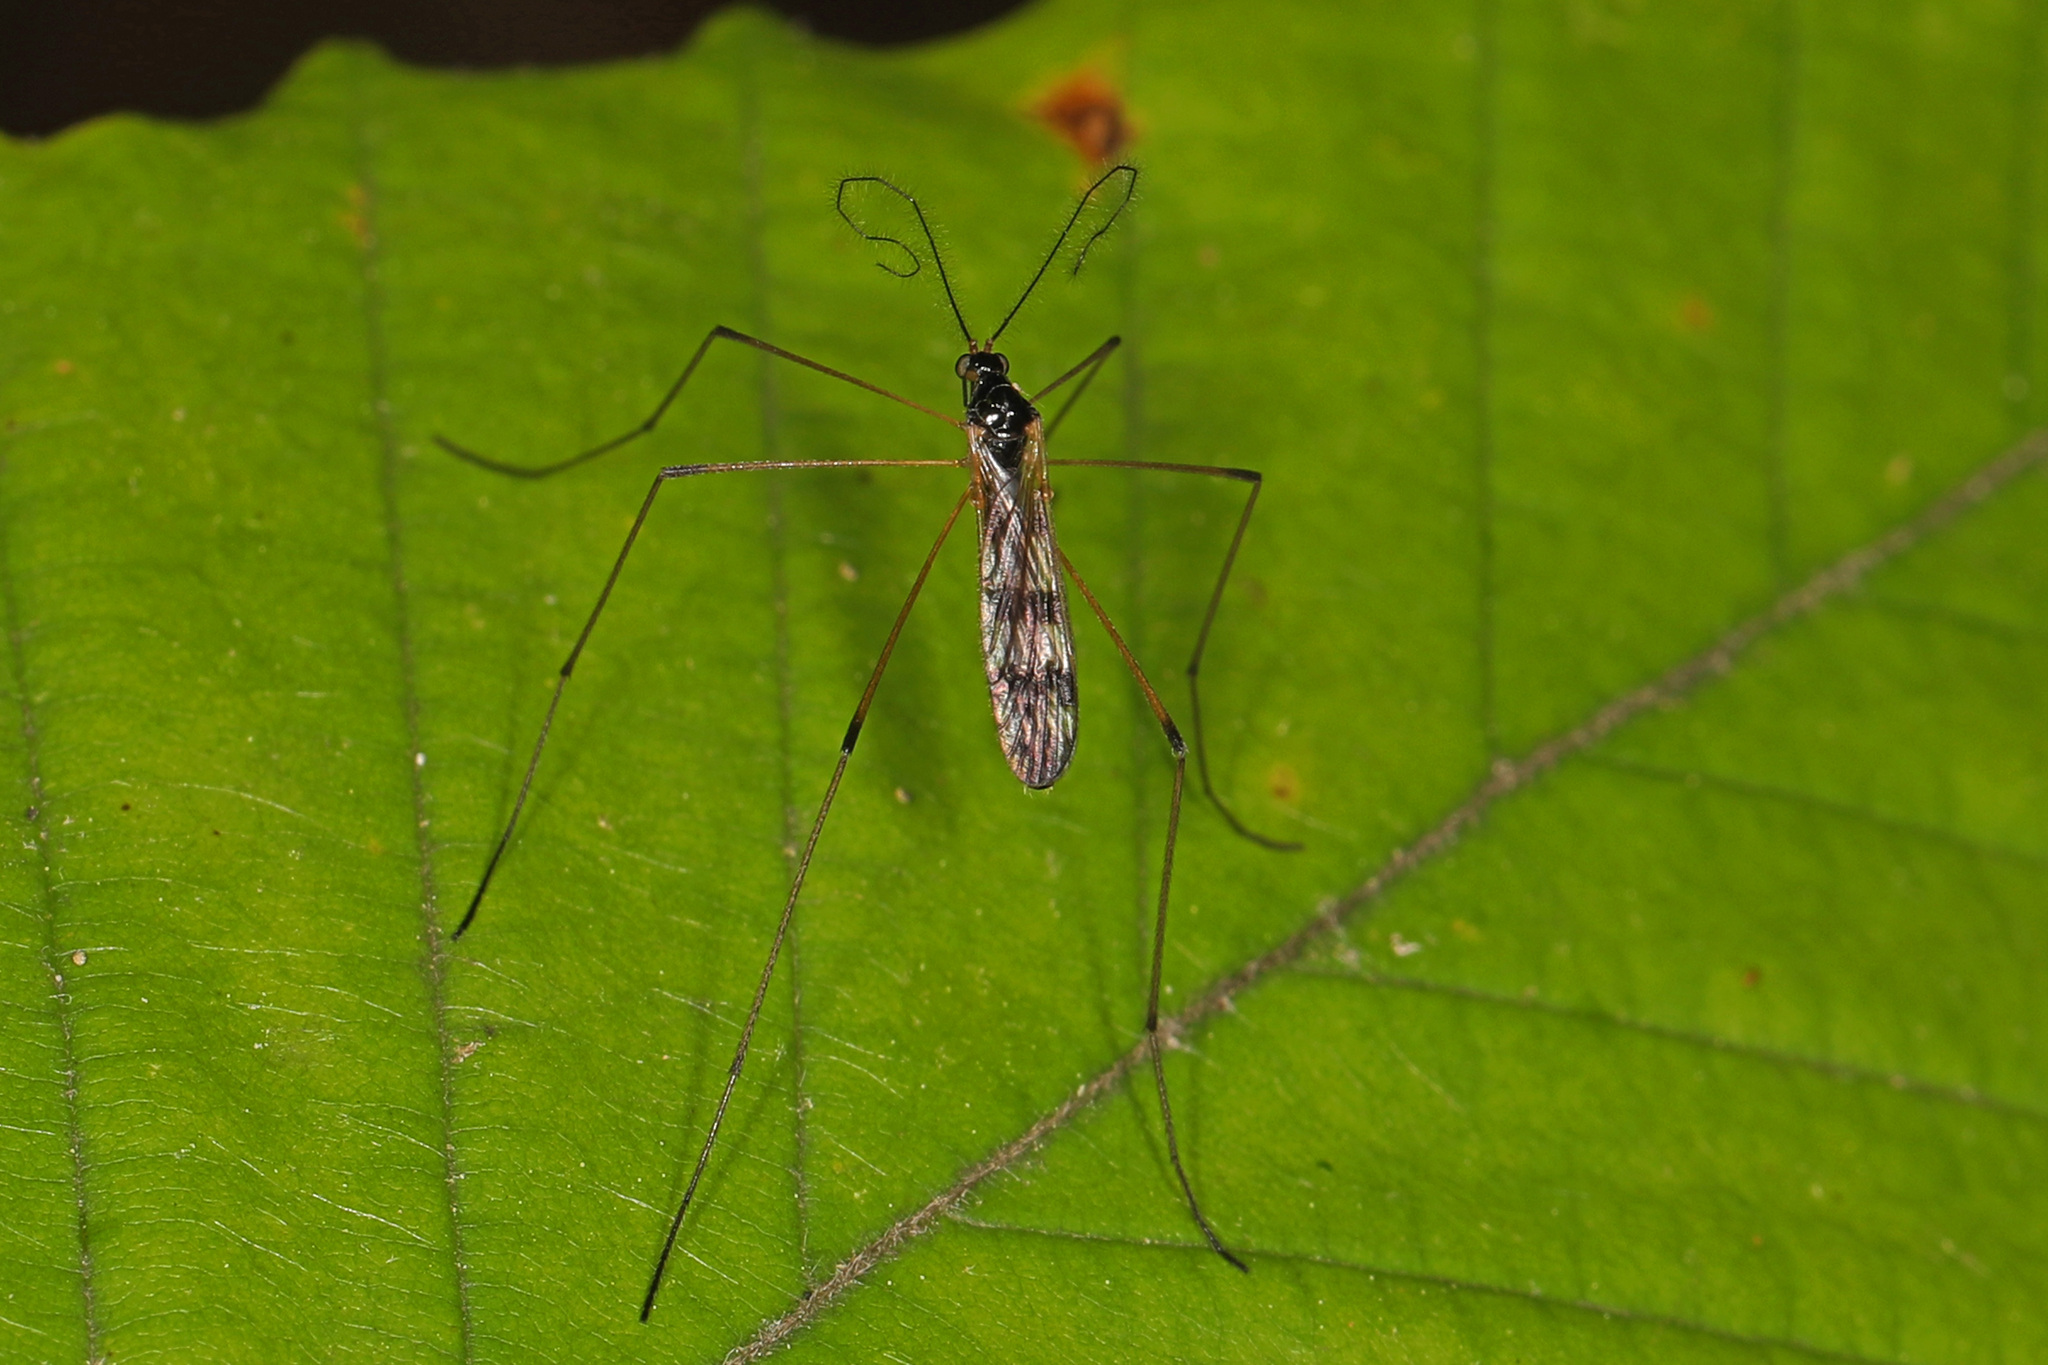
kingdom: Animalia
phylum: Arthropoda
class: Insecta
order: Diptera
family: Limoniidae
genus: Limnophila
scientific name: Limnophila macrocera
